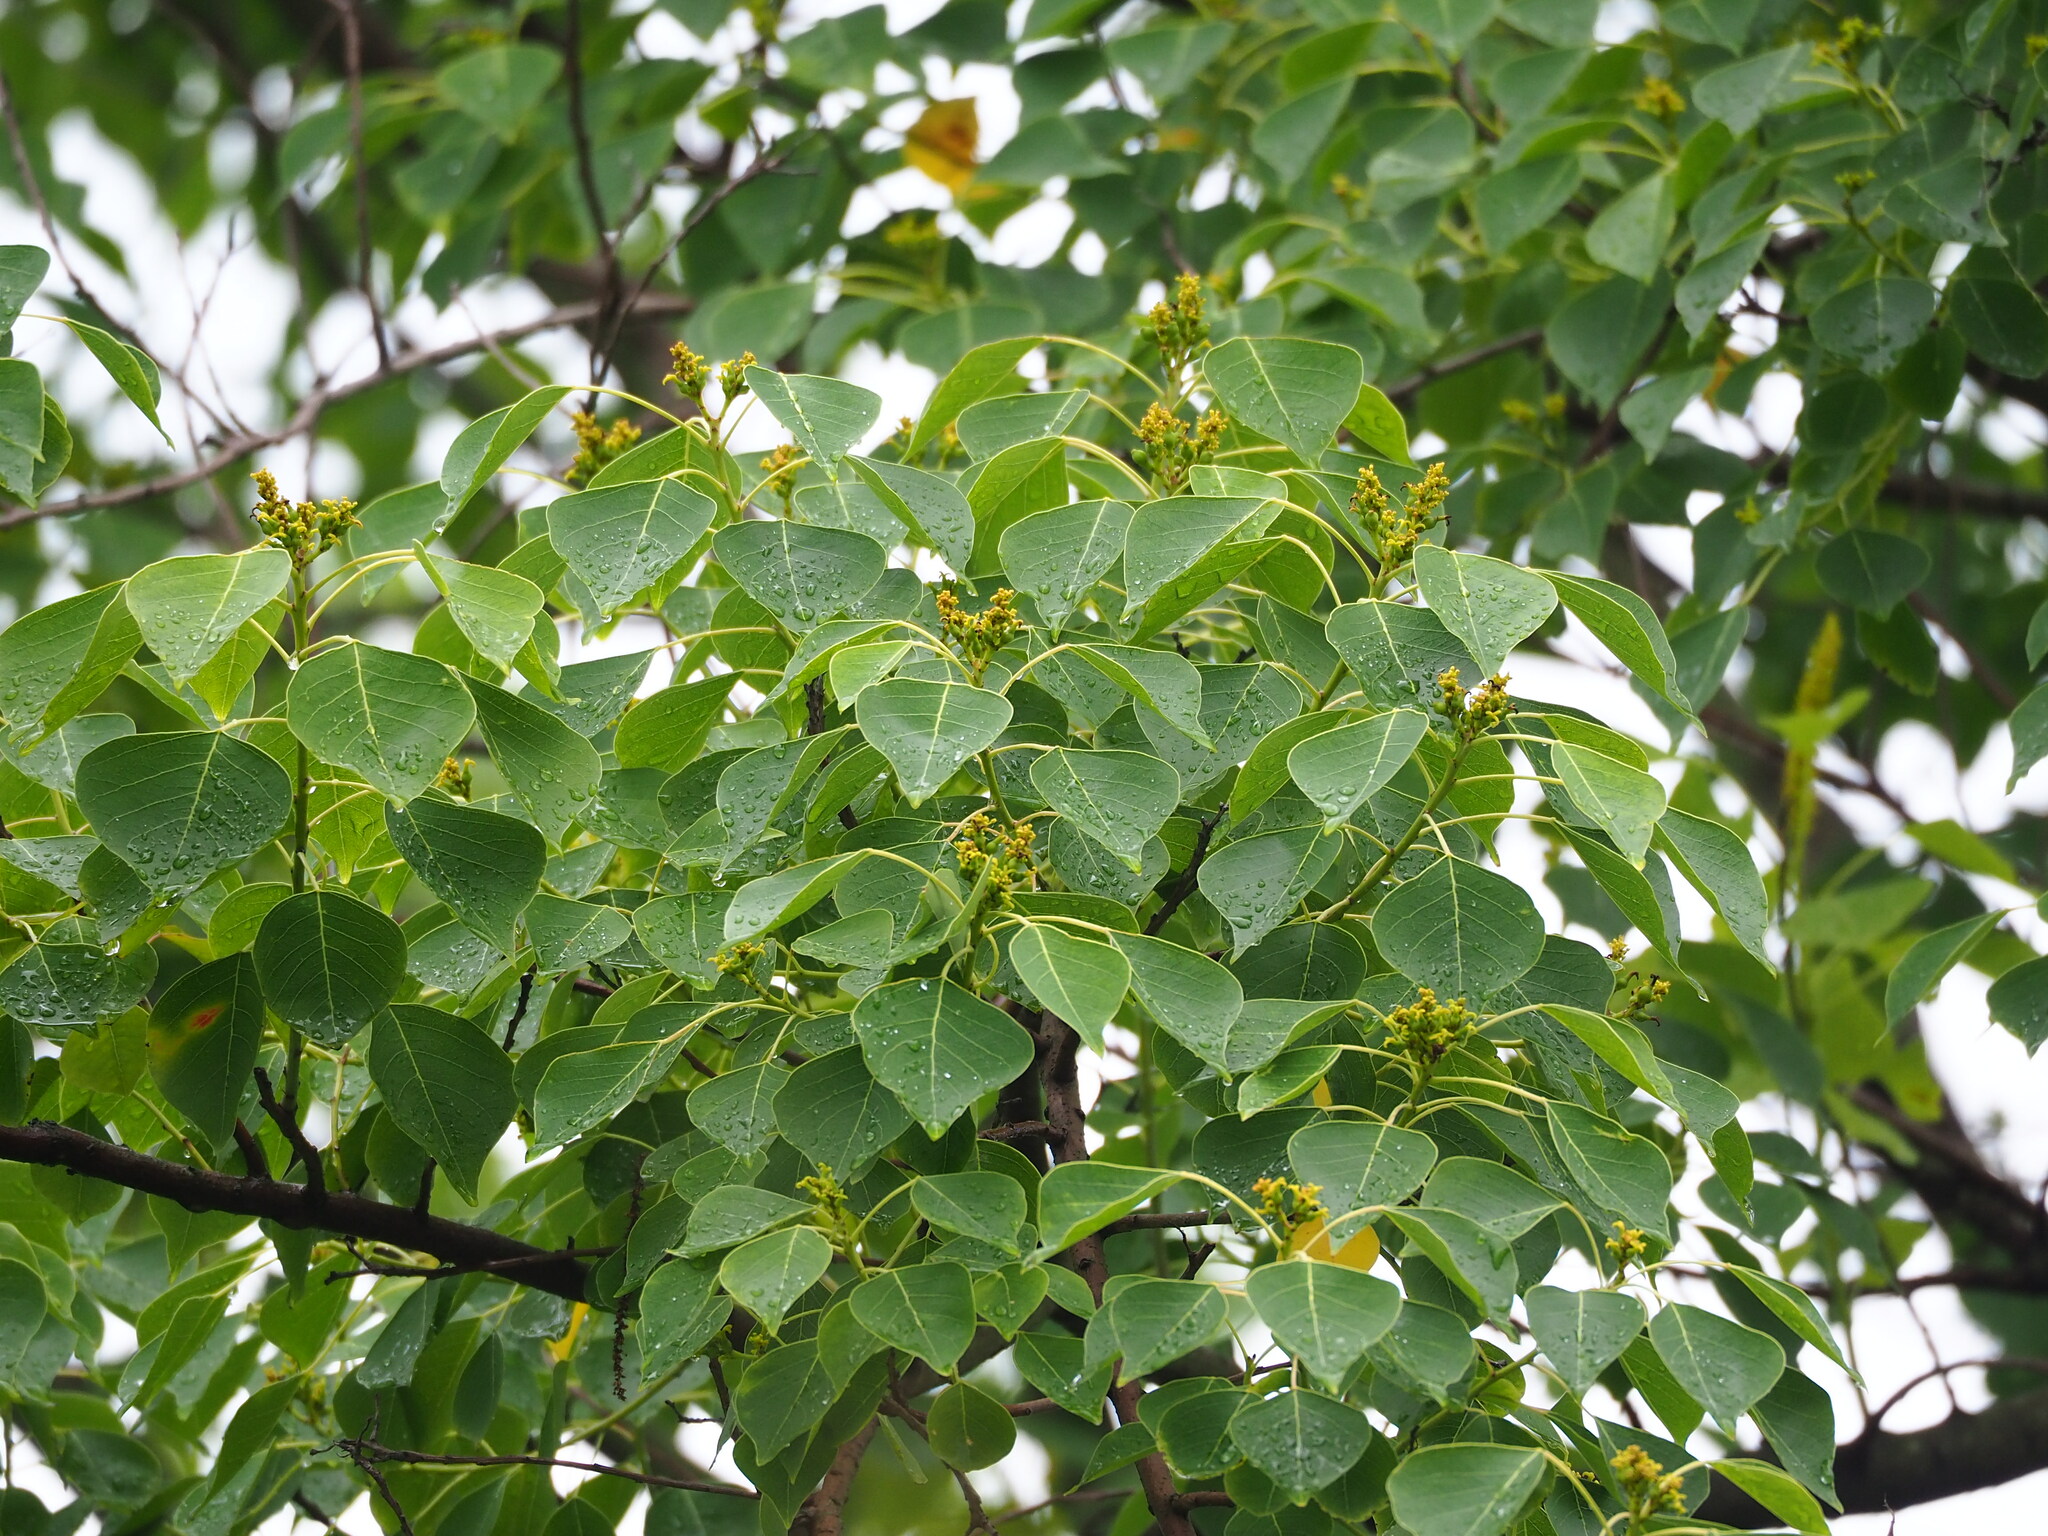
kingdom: Plantae
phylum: Tracheophyta
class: Magnoliopsida
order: Malpighiales
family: Euphorbiaceae
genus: Triadica
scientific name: Triadica sebifera
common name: Chinese tallow
